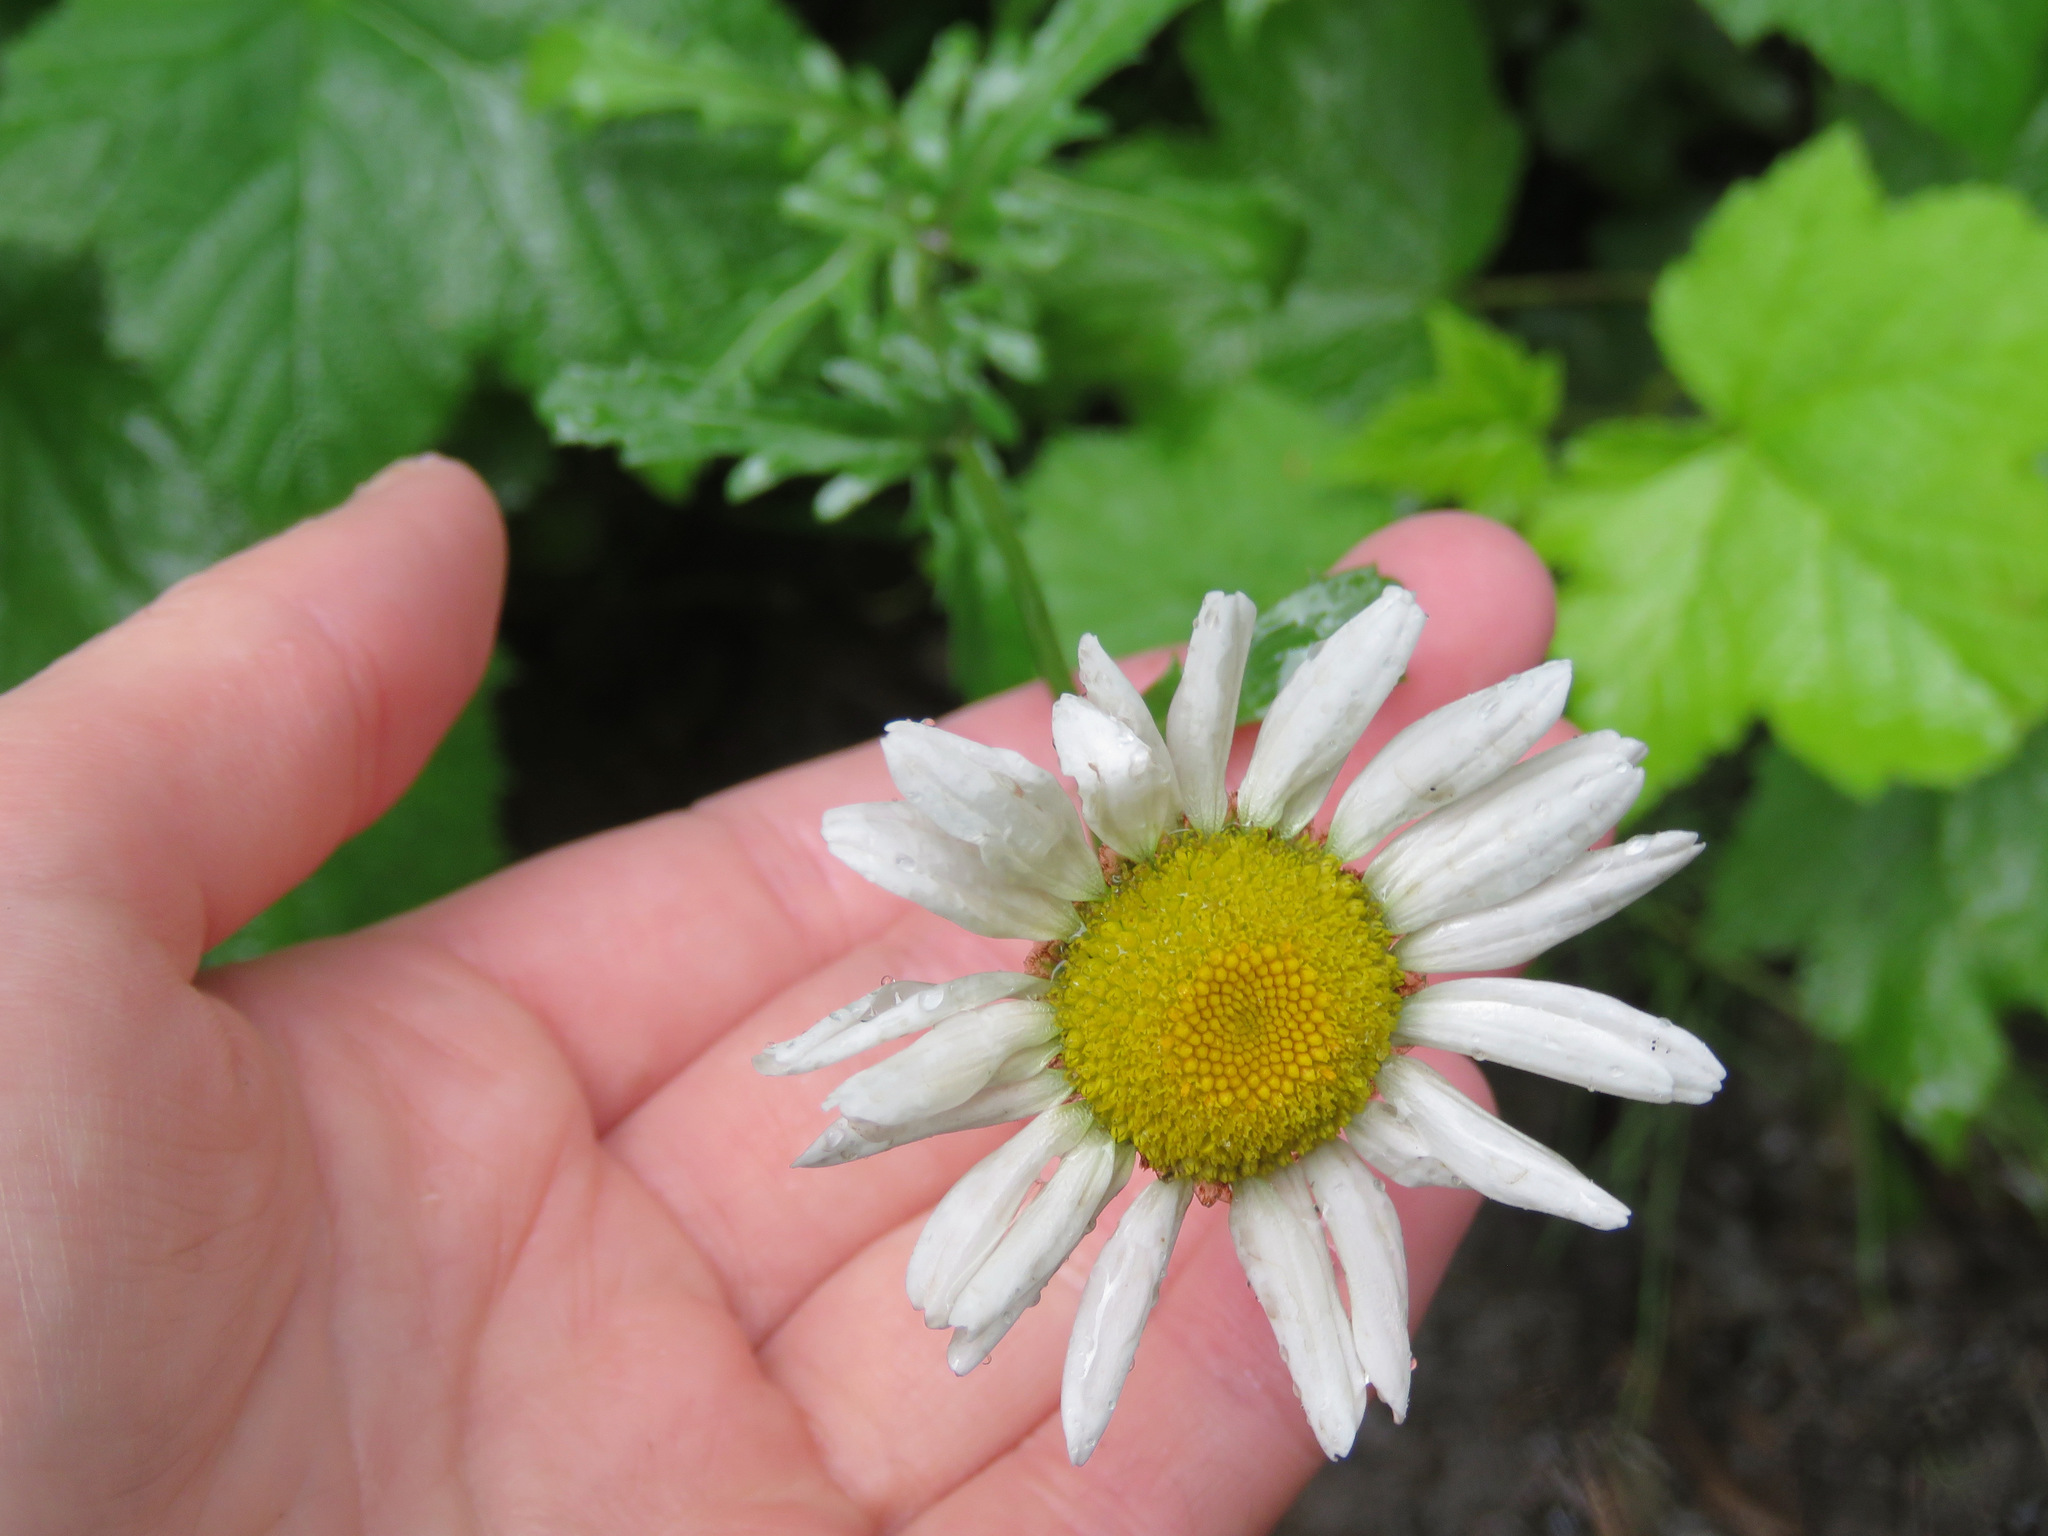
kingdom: Plantae
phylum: Tracheophyta
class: Magnoliopsida
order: Asterales
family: Asteraceae
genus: Leucanthemum
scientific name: Leucanthemum vulgare
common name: Oxeye daisy
